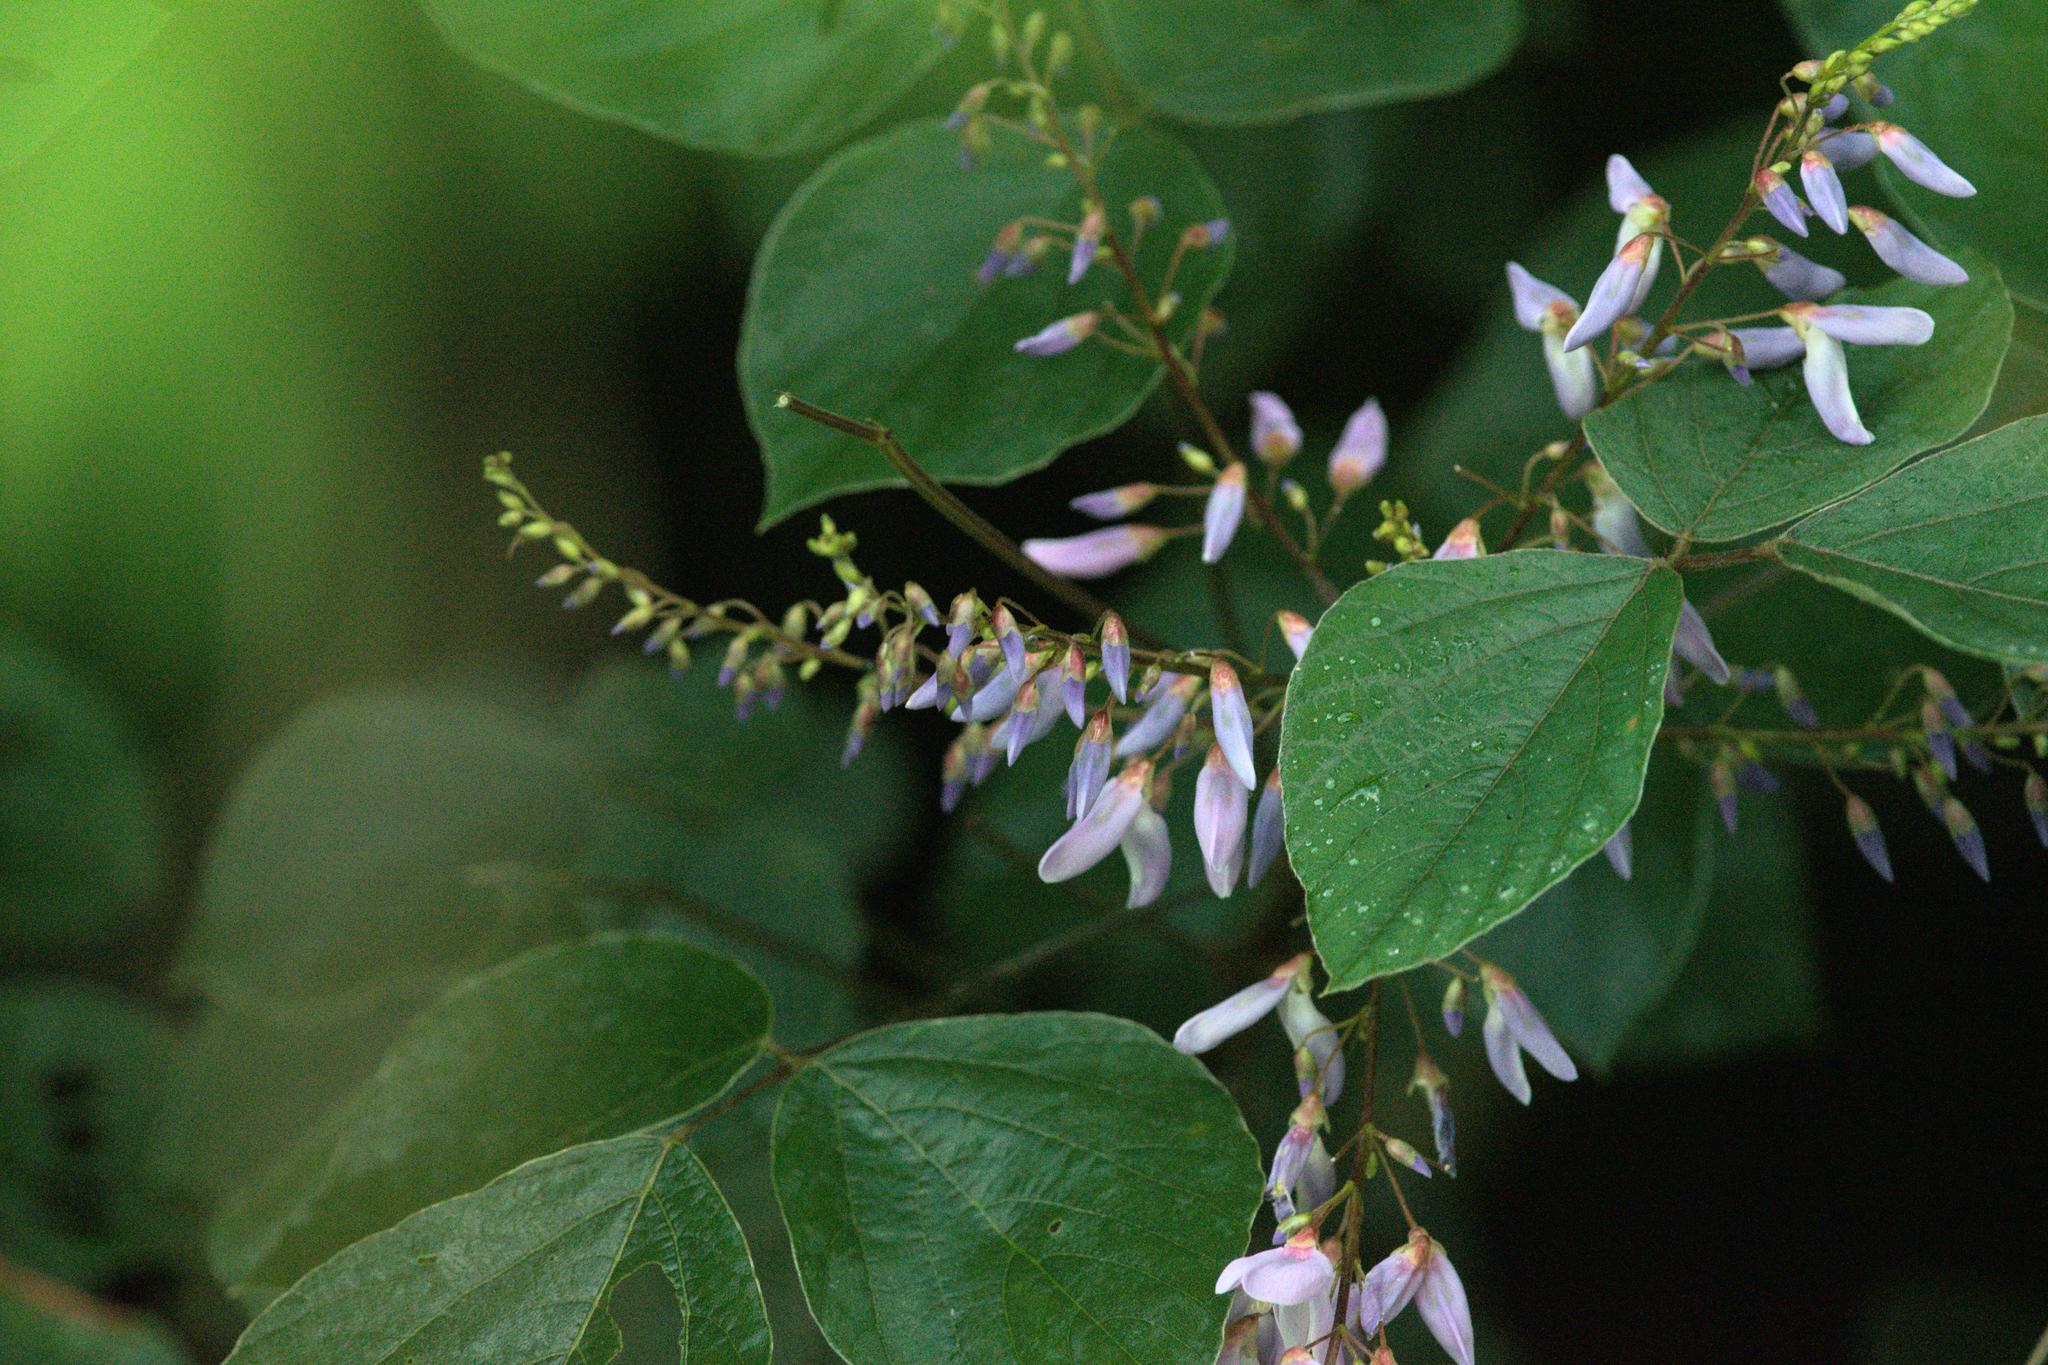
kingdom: Plantae
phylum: Tracheophyta
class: Magnoliopsida
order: Fabales
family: Fabaceae
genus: Sunhangia
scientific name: Sunhangia elegans
